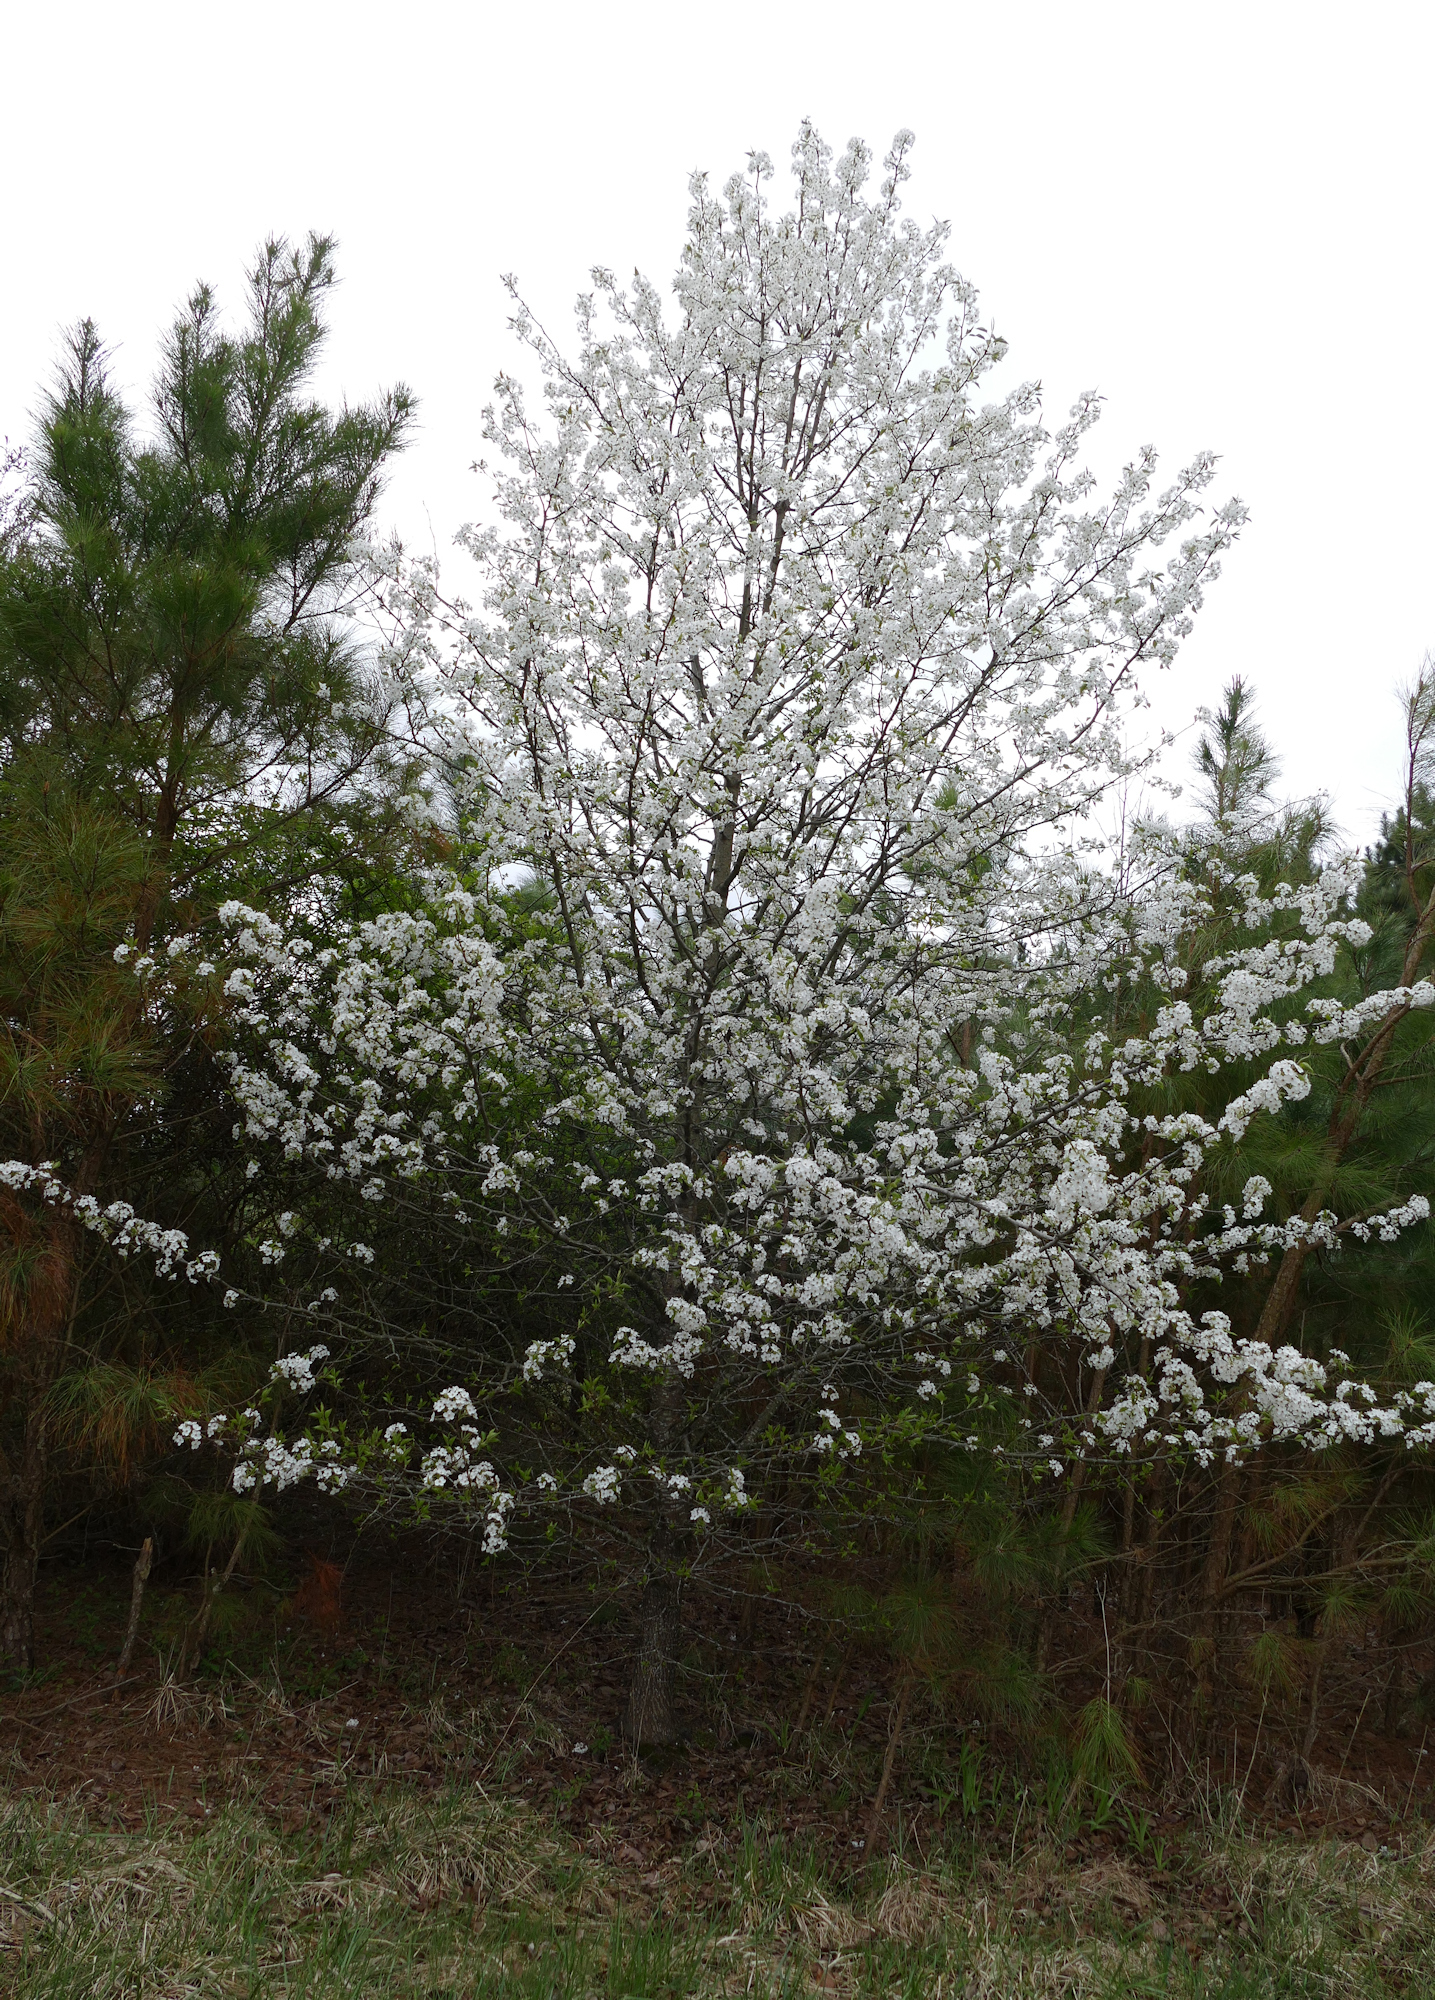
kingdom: Plantae
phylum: Tracheophyta
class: Magnoliopsida
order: Rosales
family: Rosaceae
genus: Pyrus
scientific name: Pyrus calleryana
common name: Callery pear
